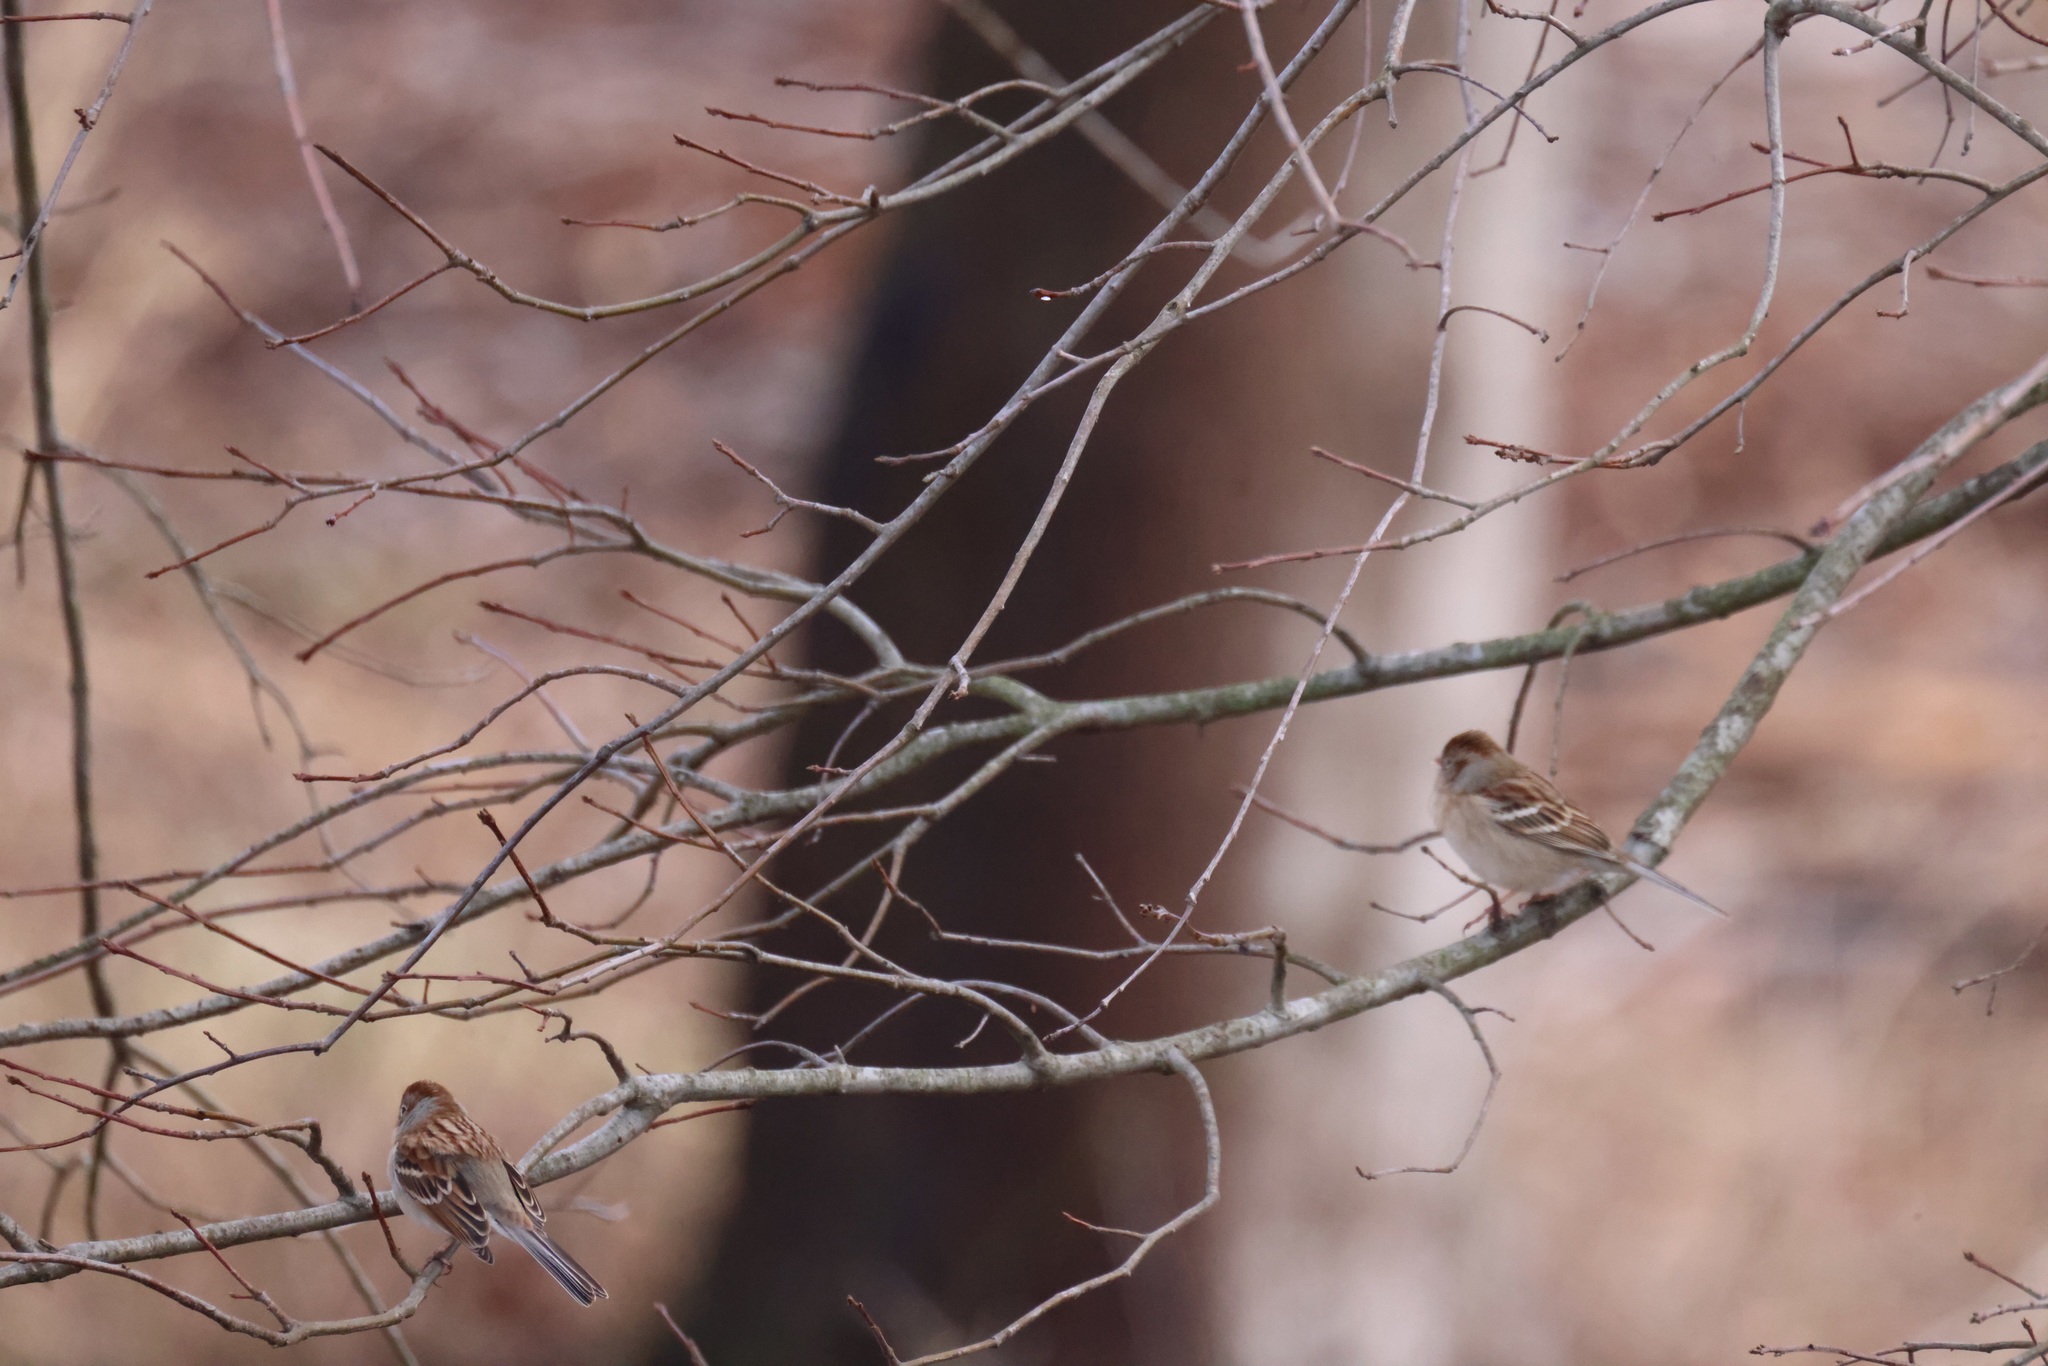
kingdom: Animalia
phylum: Chordata
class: Aves
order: Passeriformes
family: Passerellidae
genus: Spizella
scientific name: Spizella pusilla
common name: Field sparrow
